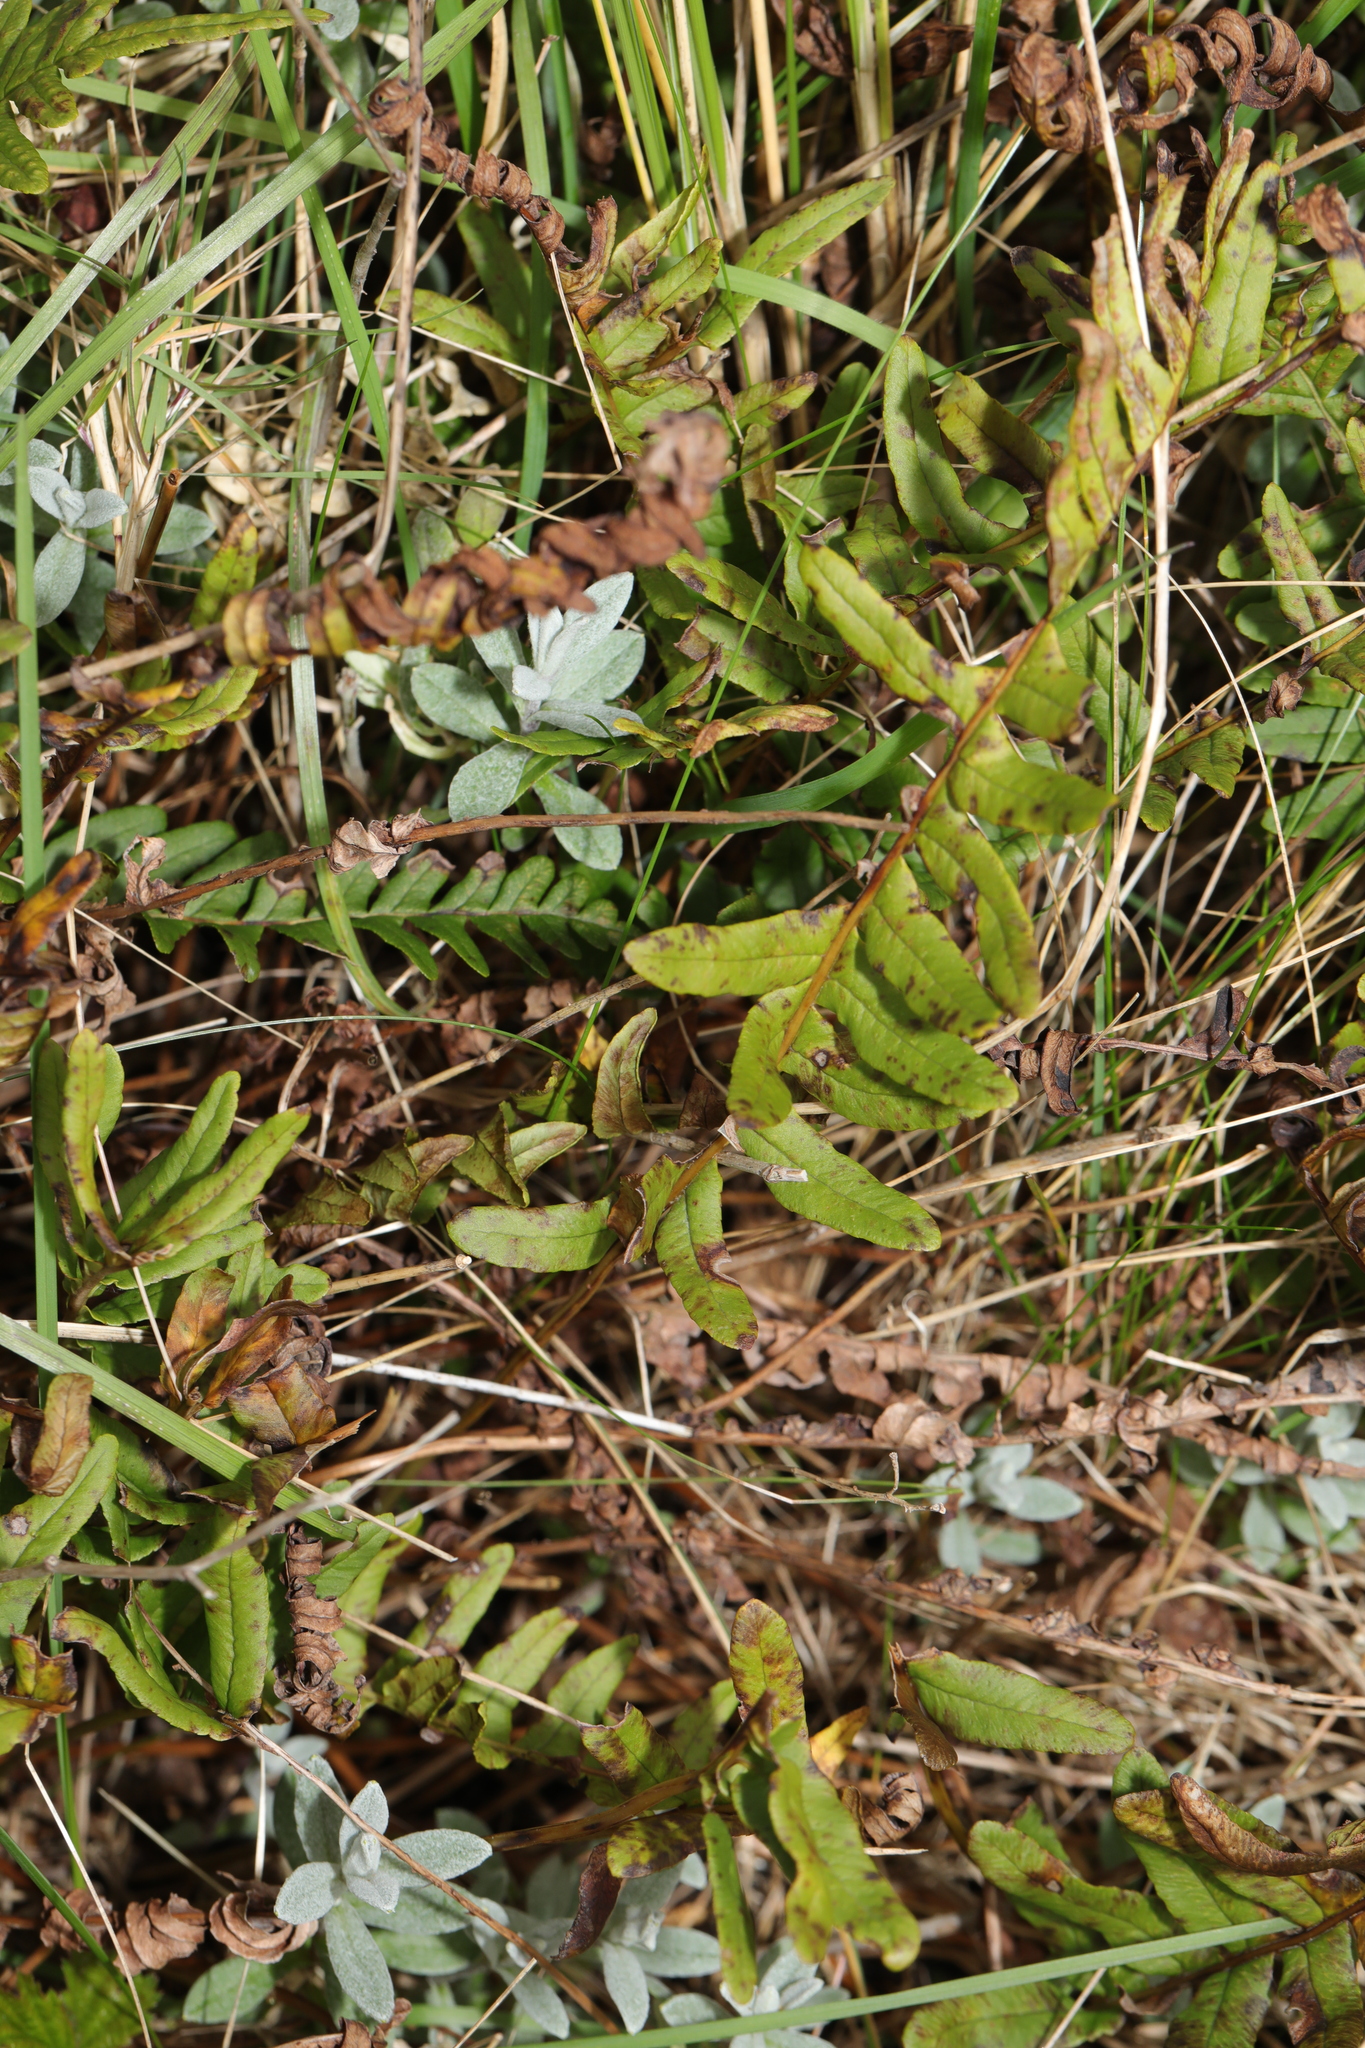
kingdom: Plantae
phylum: Tracheophyta
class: Polypodiopsida
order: Polypodiales
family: Polypodiaceae
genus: Polypodium
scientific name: Polypodium vulgare
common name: Common polypody
